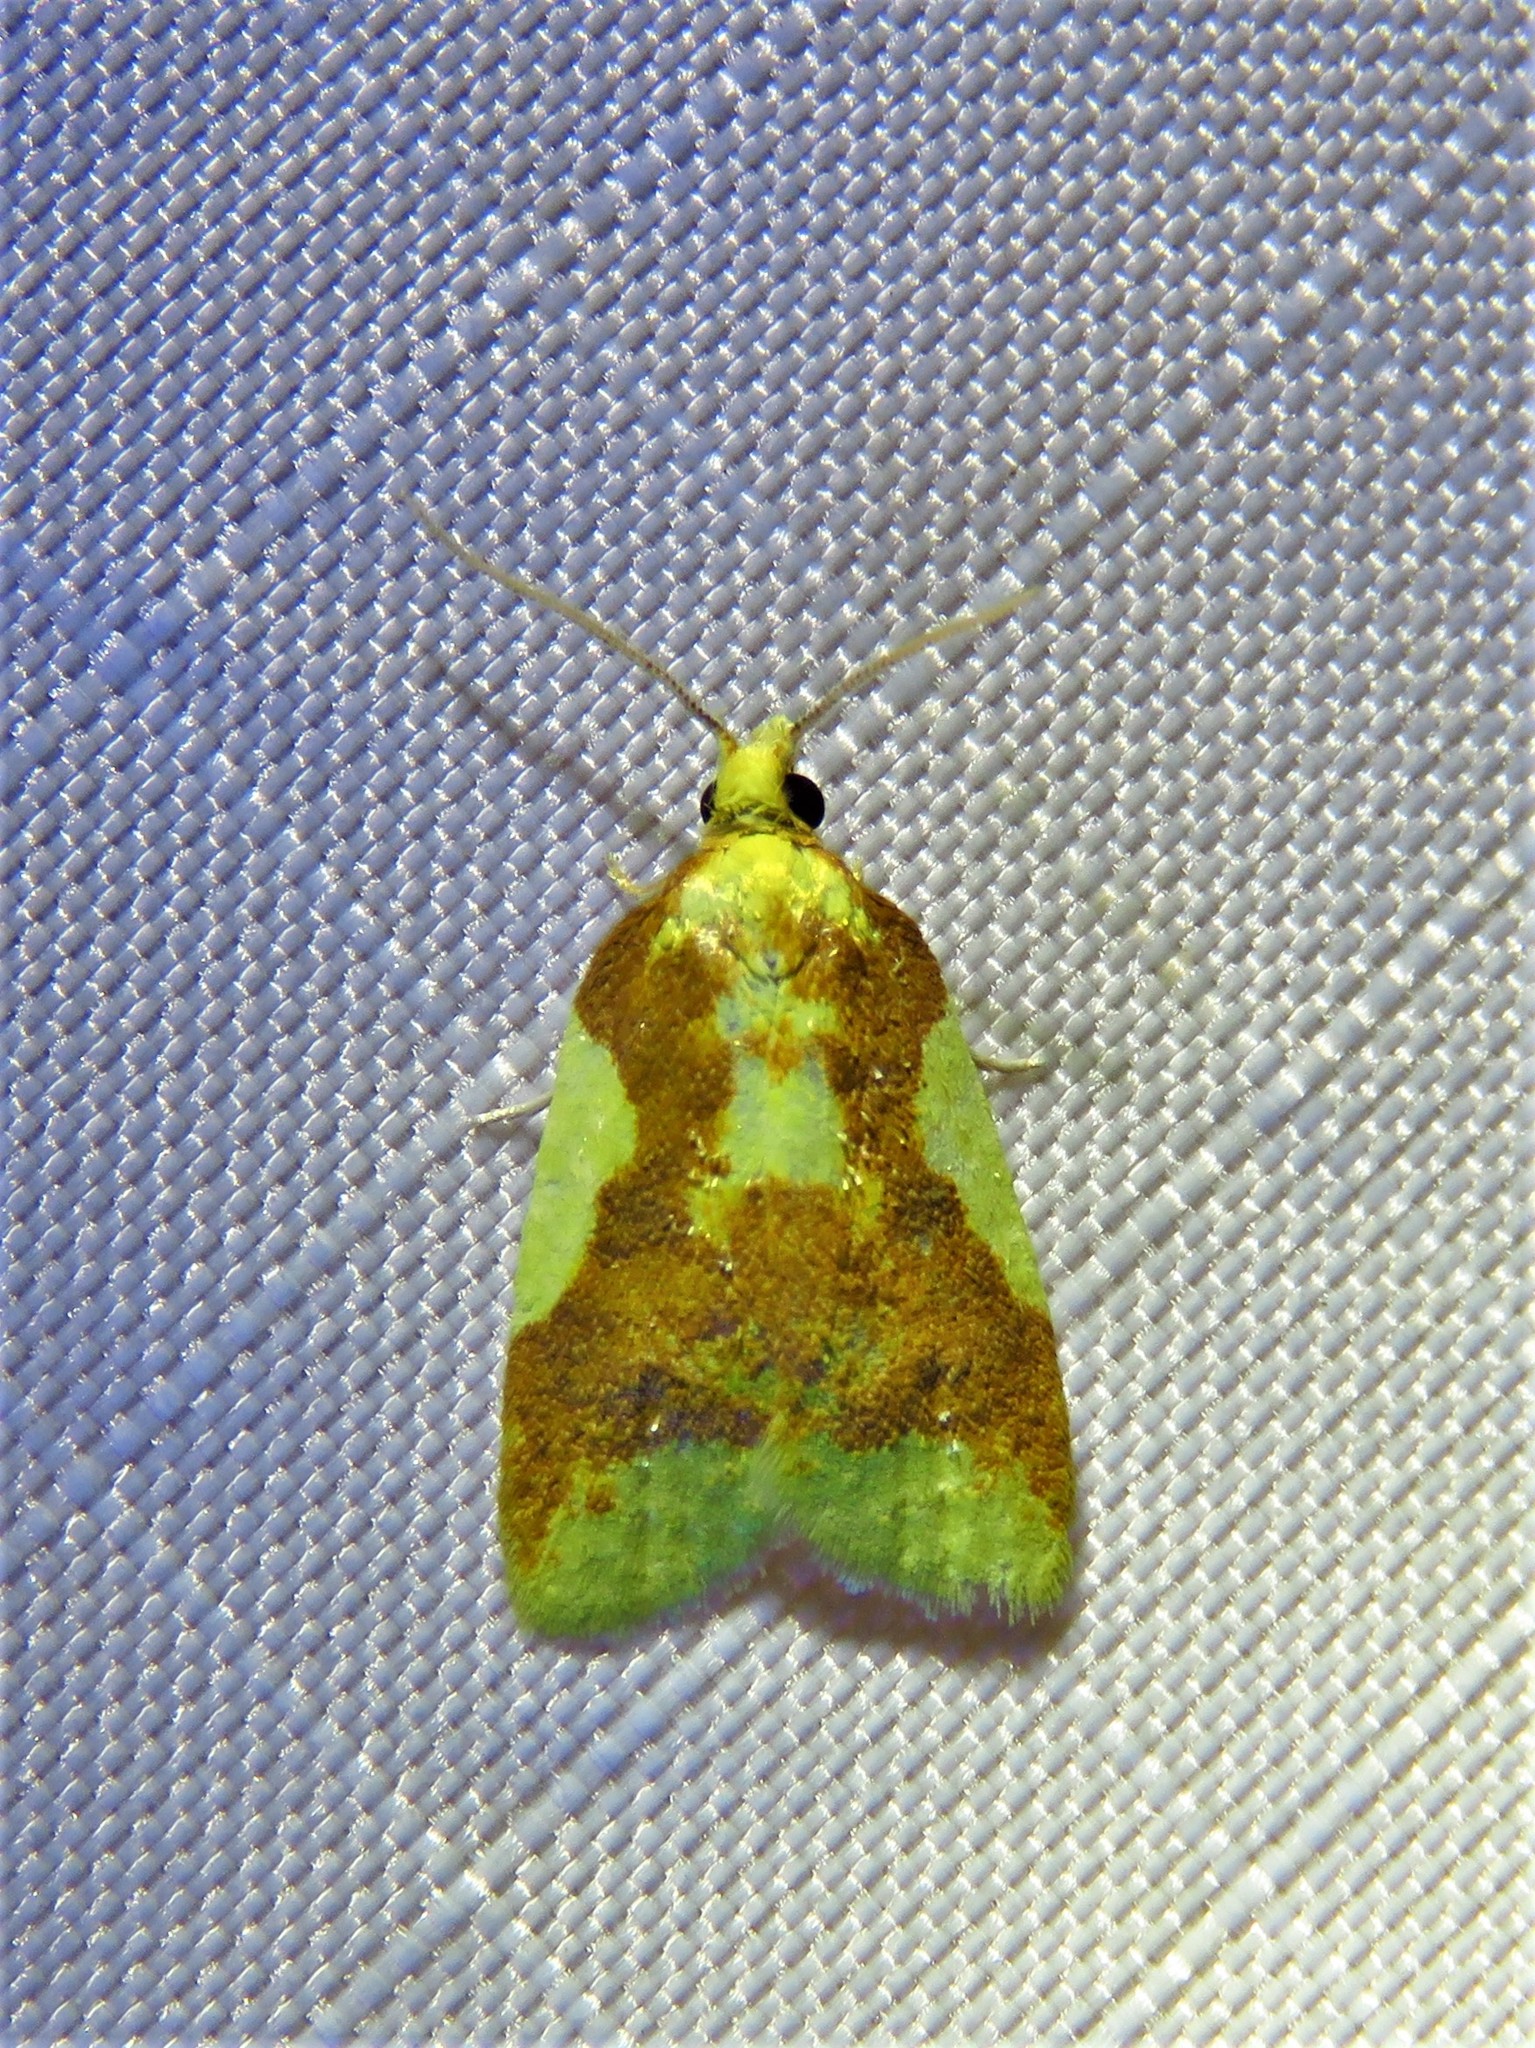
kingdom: Animalia
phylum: Arthropoda
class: Insecta
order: Lepidoptera
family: Tortricidae
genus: Sparganothis
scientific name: Sparganothis pulcherrimana
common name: Beautiful sparganothis
